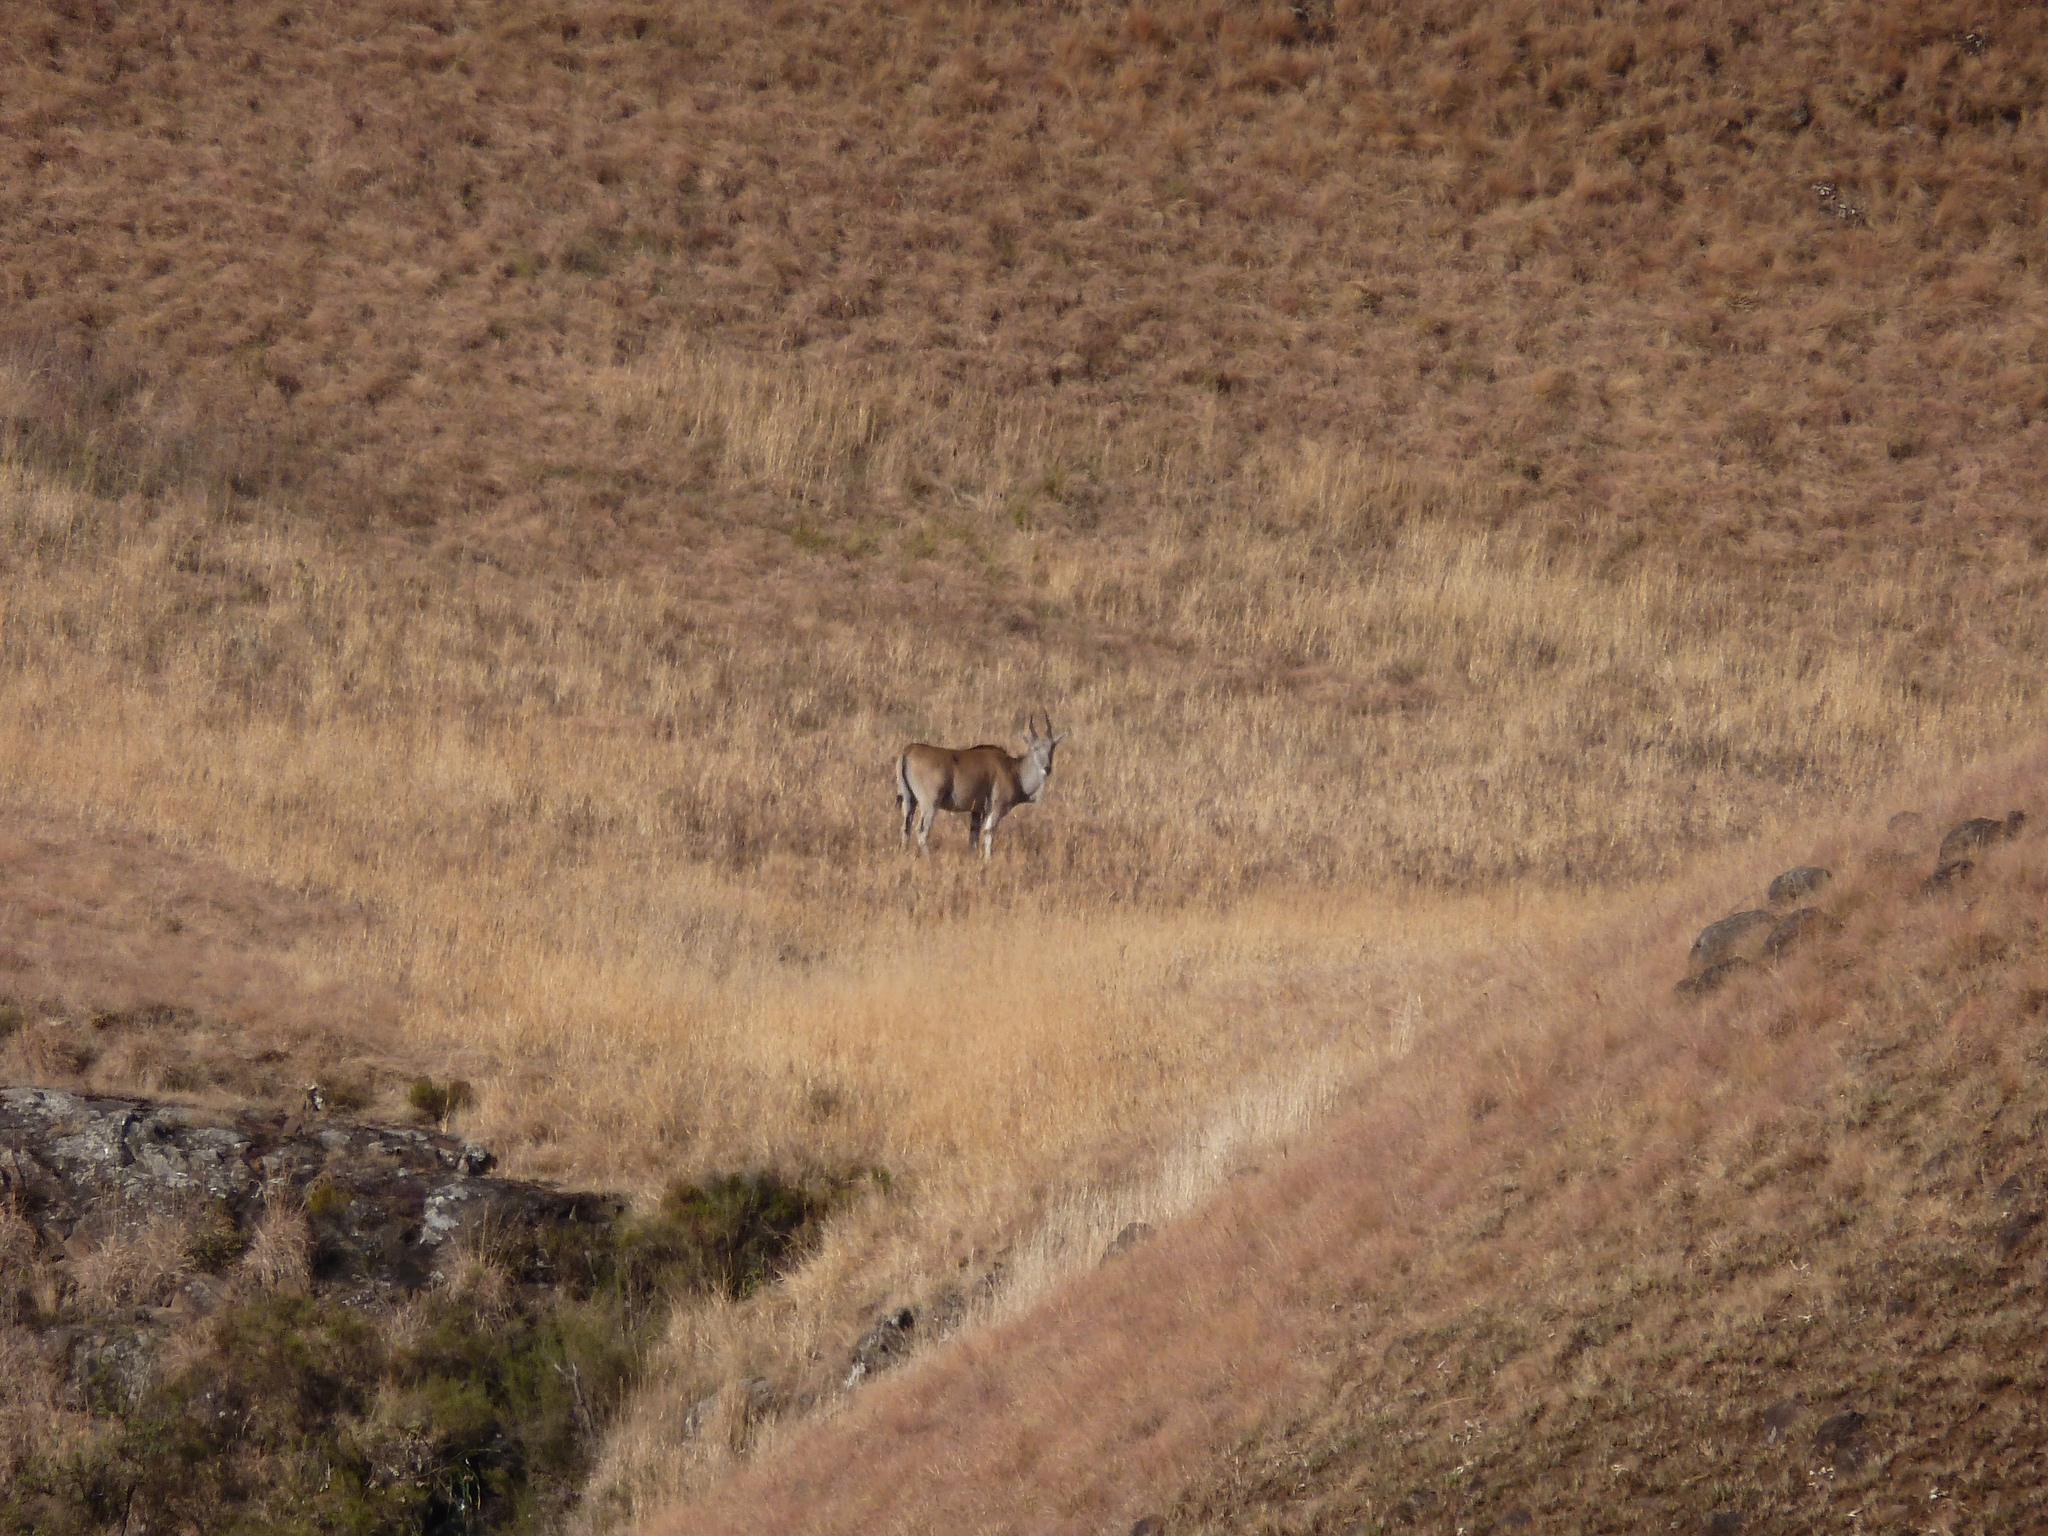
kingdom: Animalia
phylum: Chordata
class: Mammalia
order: Artiodactyla
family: Bovidae
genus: Taurotragus
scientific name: Taurotragus oryx
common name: Common eland
